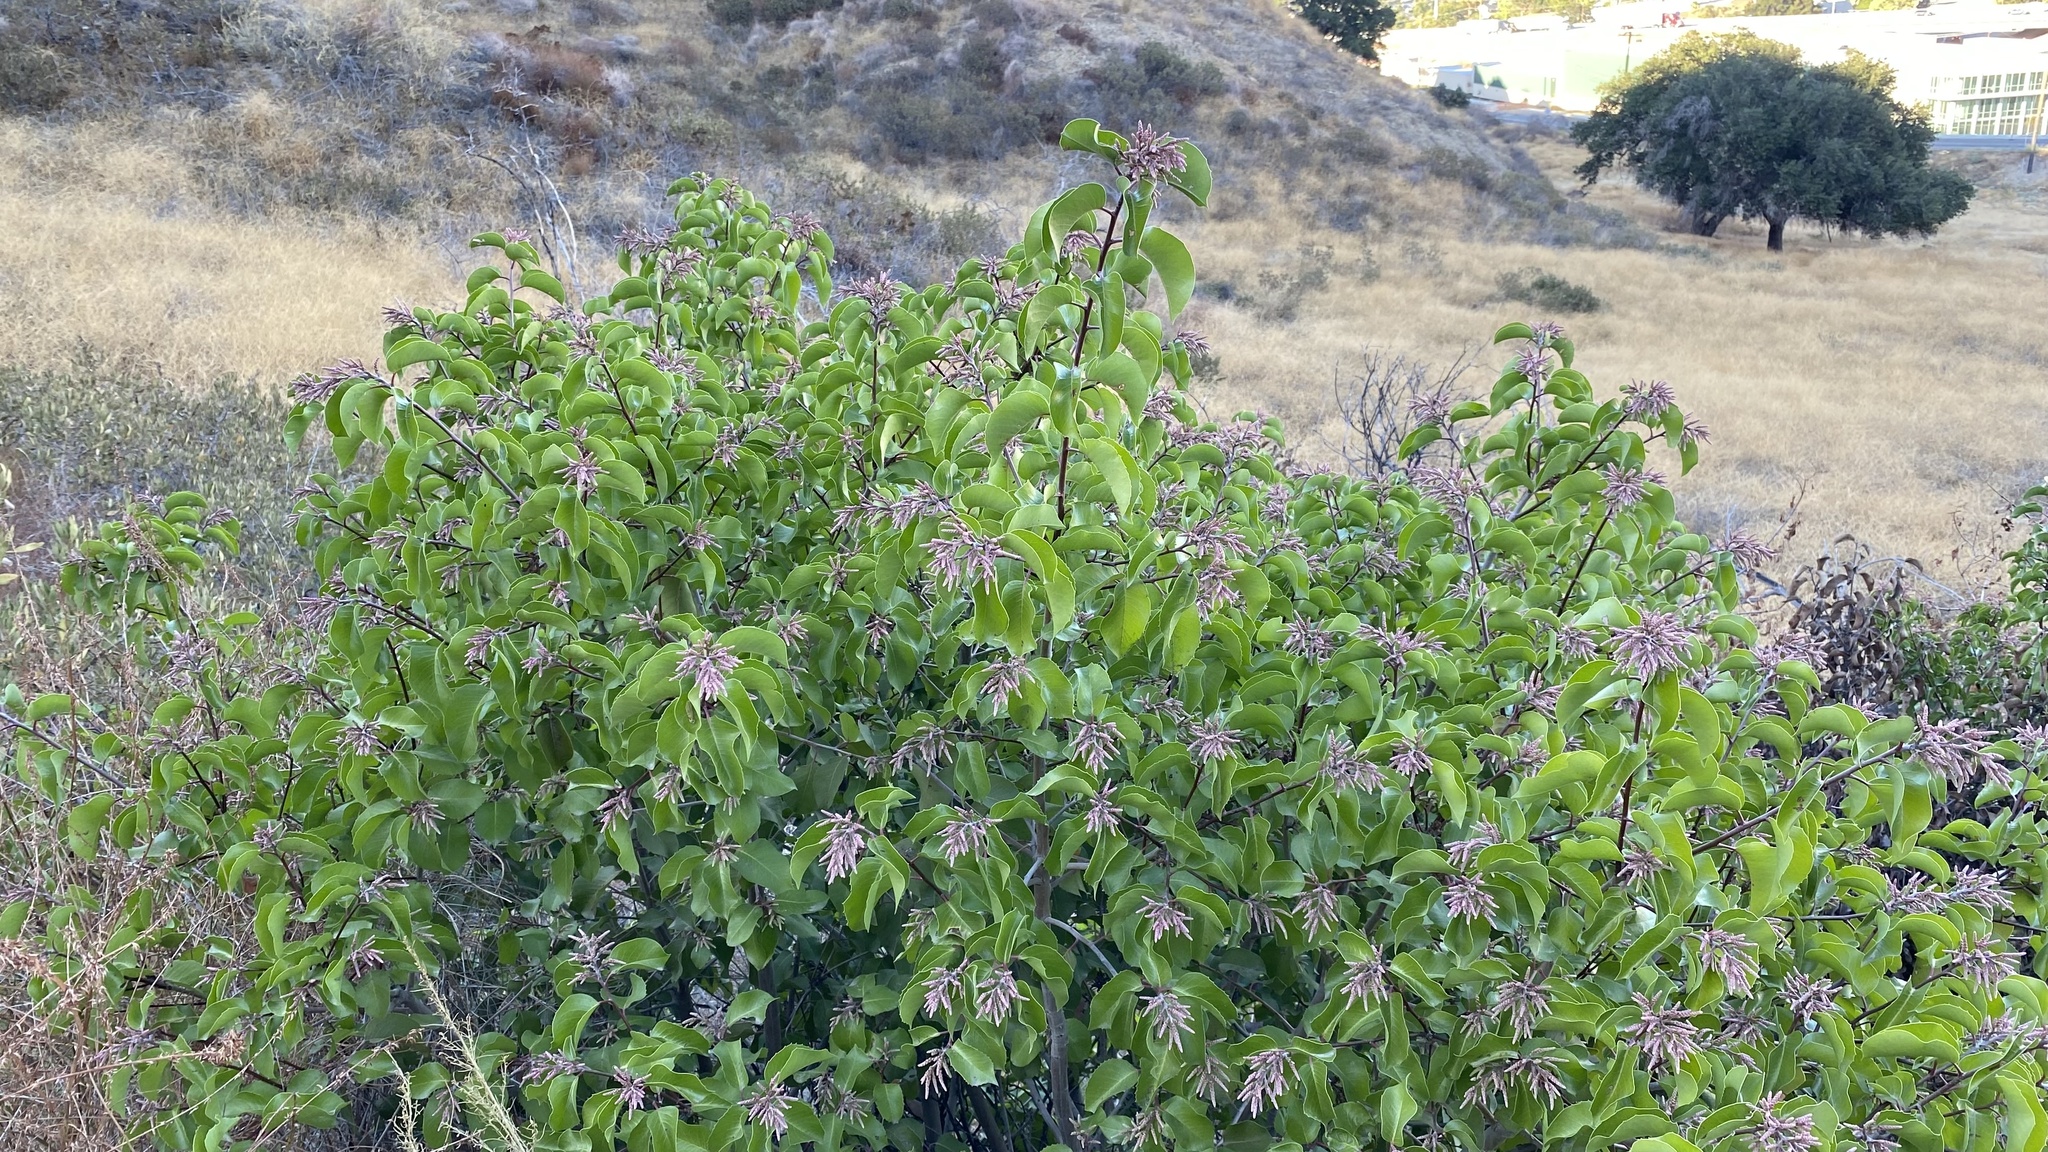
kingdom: Plantae
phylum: Tracheophyta
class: Magnoliopsida
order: Sapindales
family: Anacardiaceae
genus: Rhus
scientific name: Rhus
